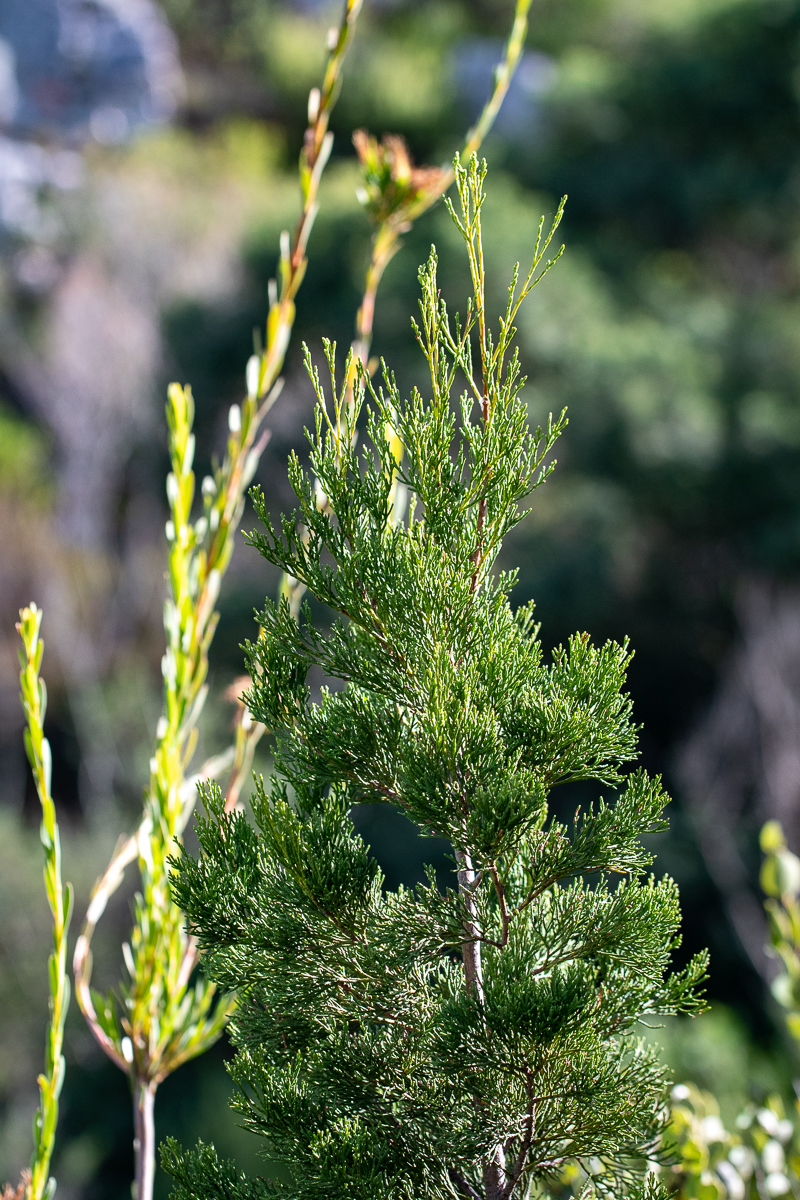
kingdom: Plantae
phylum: Tracheophyta
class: Pinopsida
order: Pinales
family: Cupressaceae
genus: Widdringtonia
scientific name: Widdringtonia nodiflora
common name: Cape cypress
